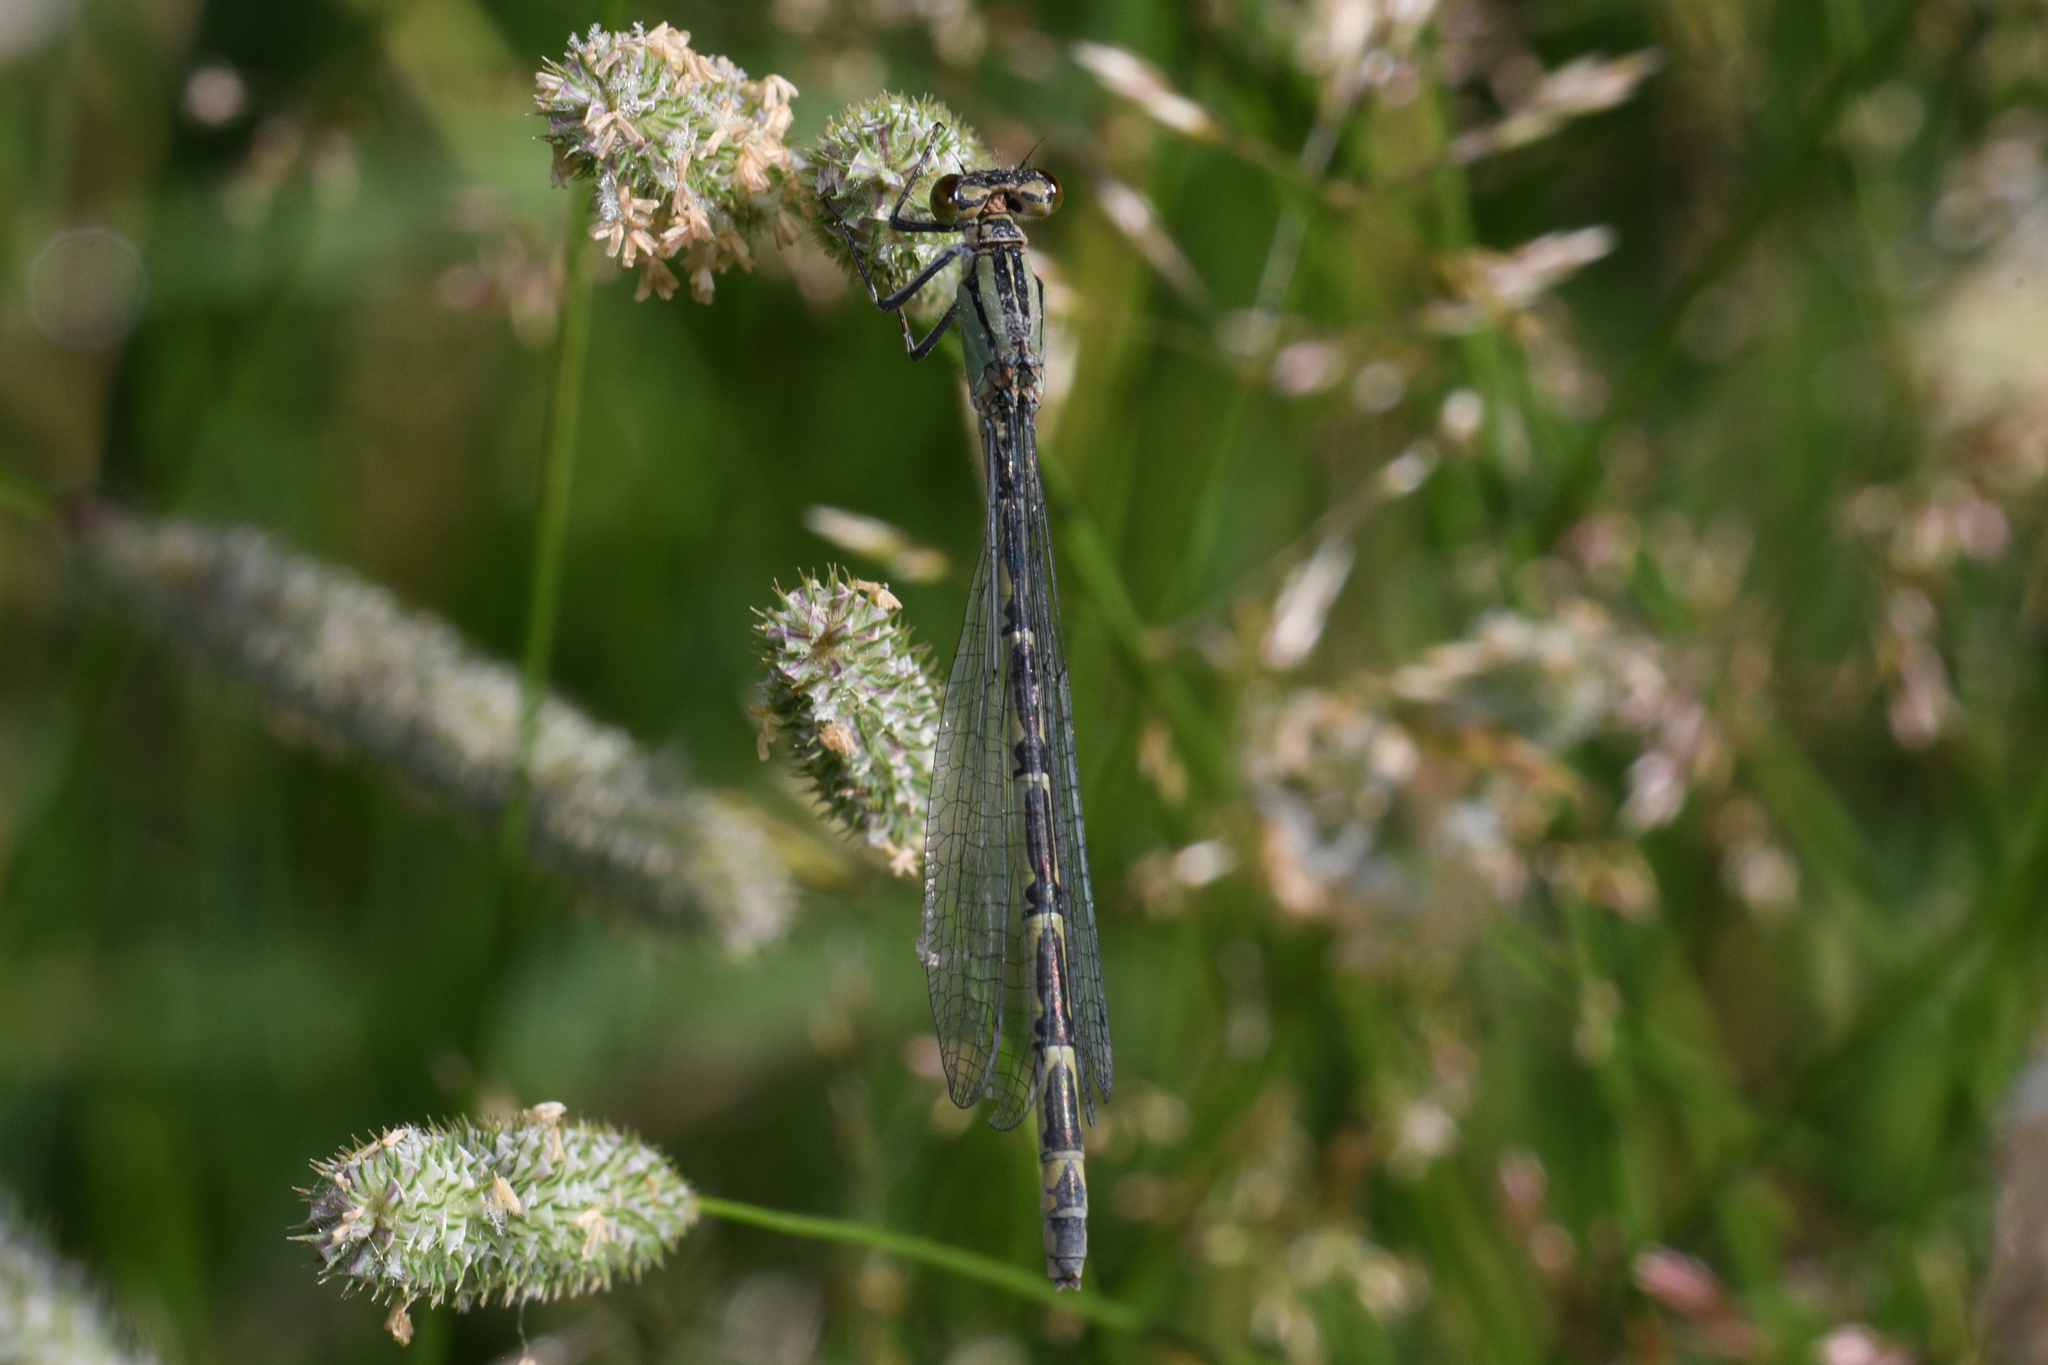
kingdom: Animalia
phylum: Arthropoda
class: Insecta
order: Odonata
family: Coenagrionidae
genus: Enallagma
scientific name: Enallagma cyathigerum
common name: Common blue damselfly
